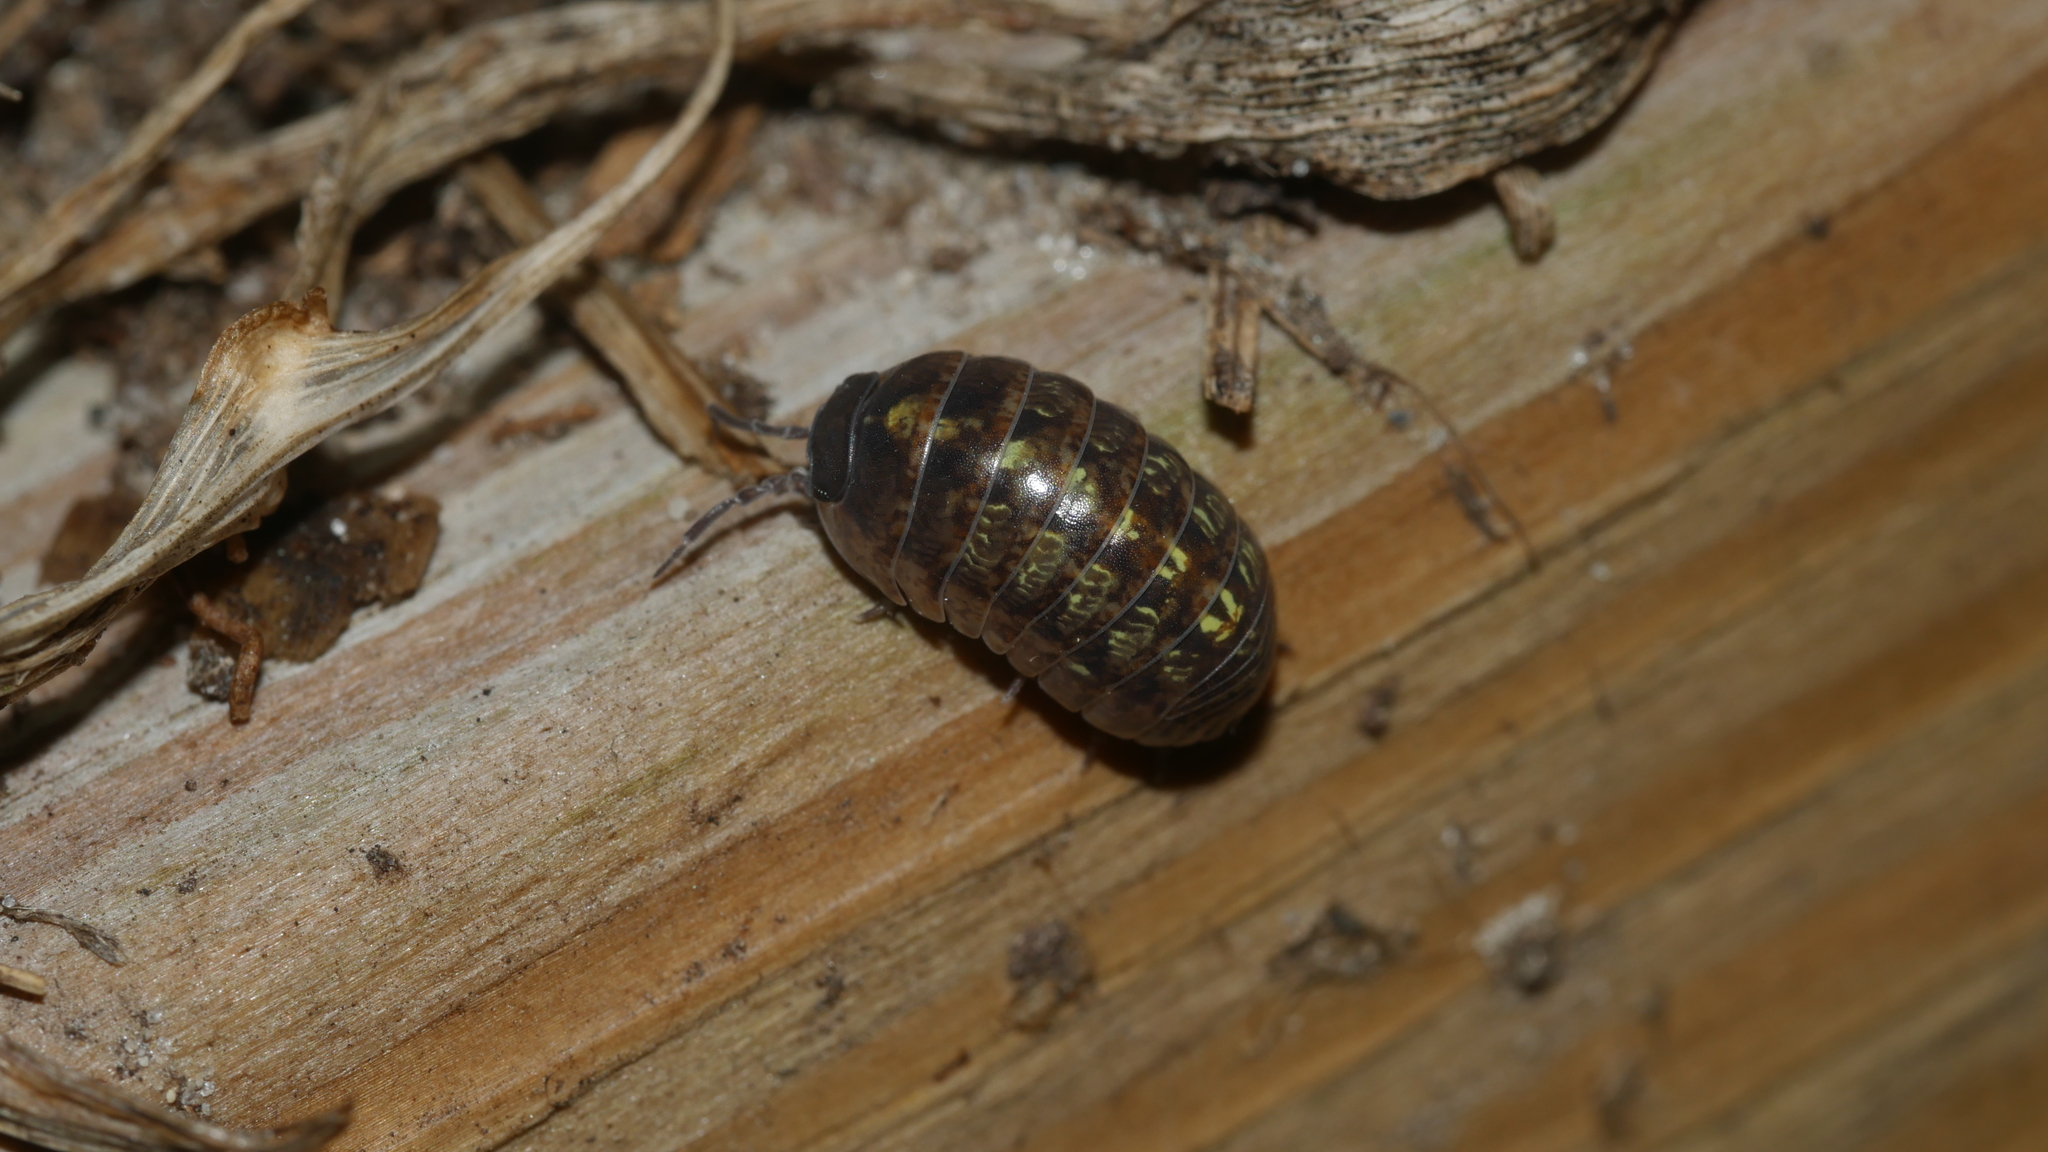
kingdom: Animalia
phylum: Arthropoda
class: Malacostraca
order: Isopoda
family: Armadillidiidae
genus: Armadillidium
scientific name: Armadillidium vulgare
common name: Common pill woodlouse
